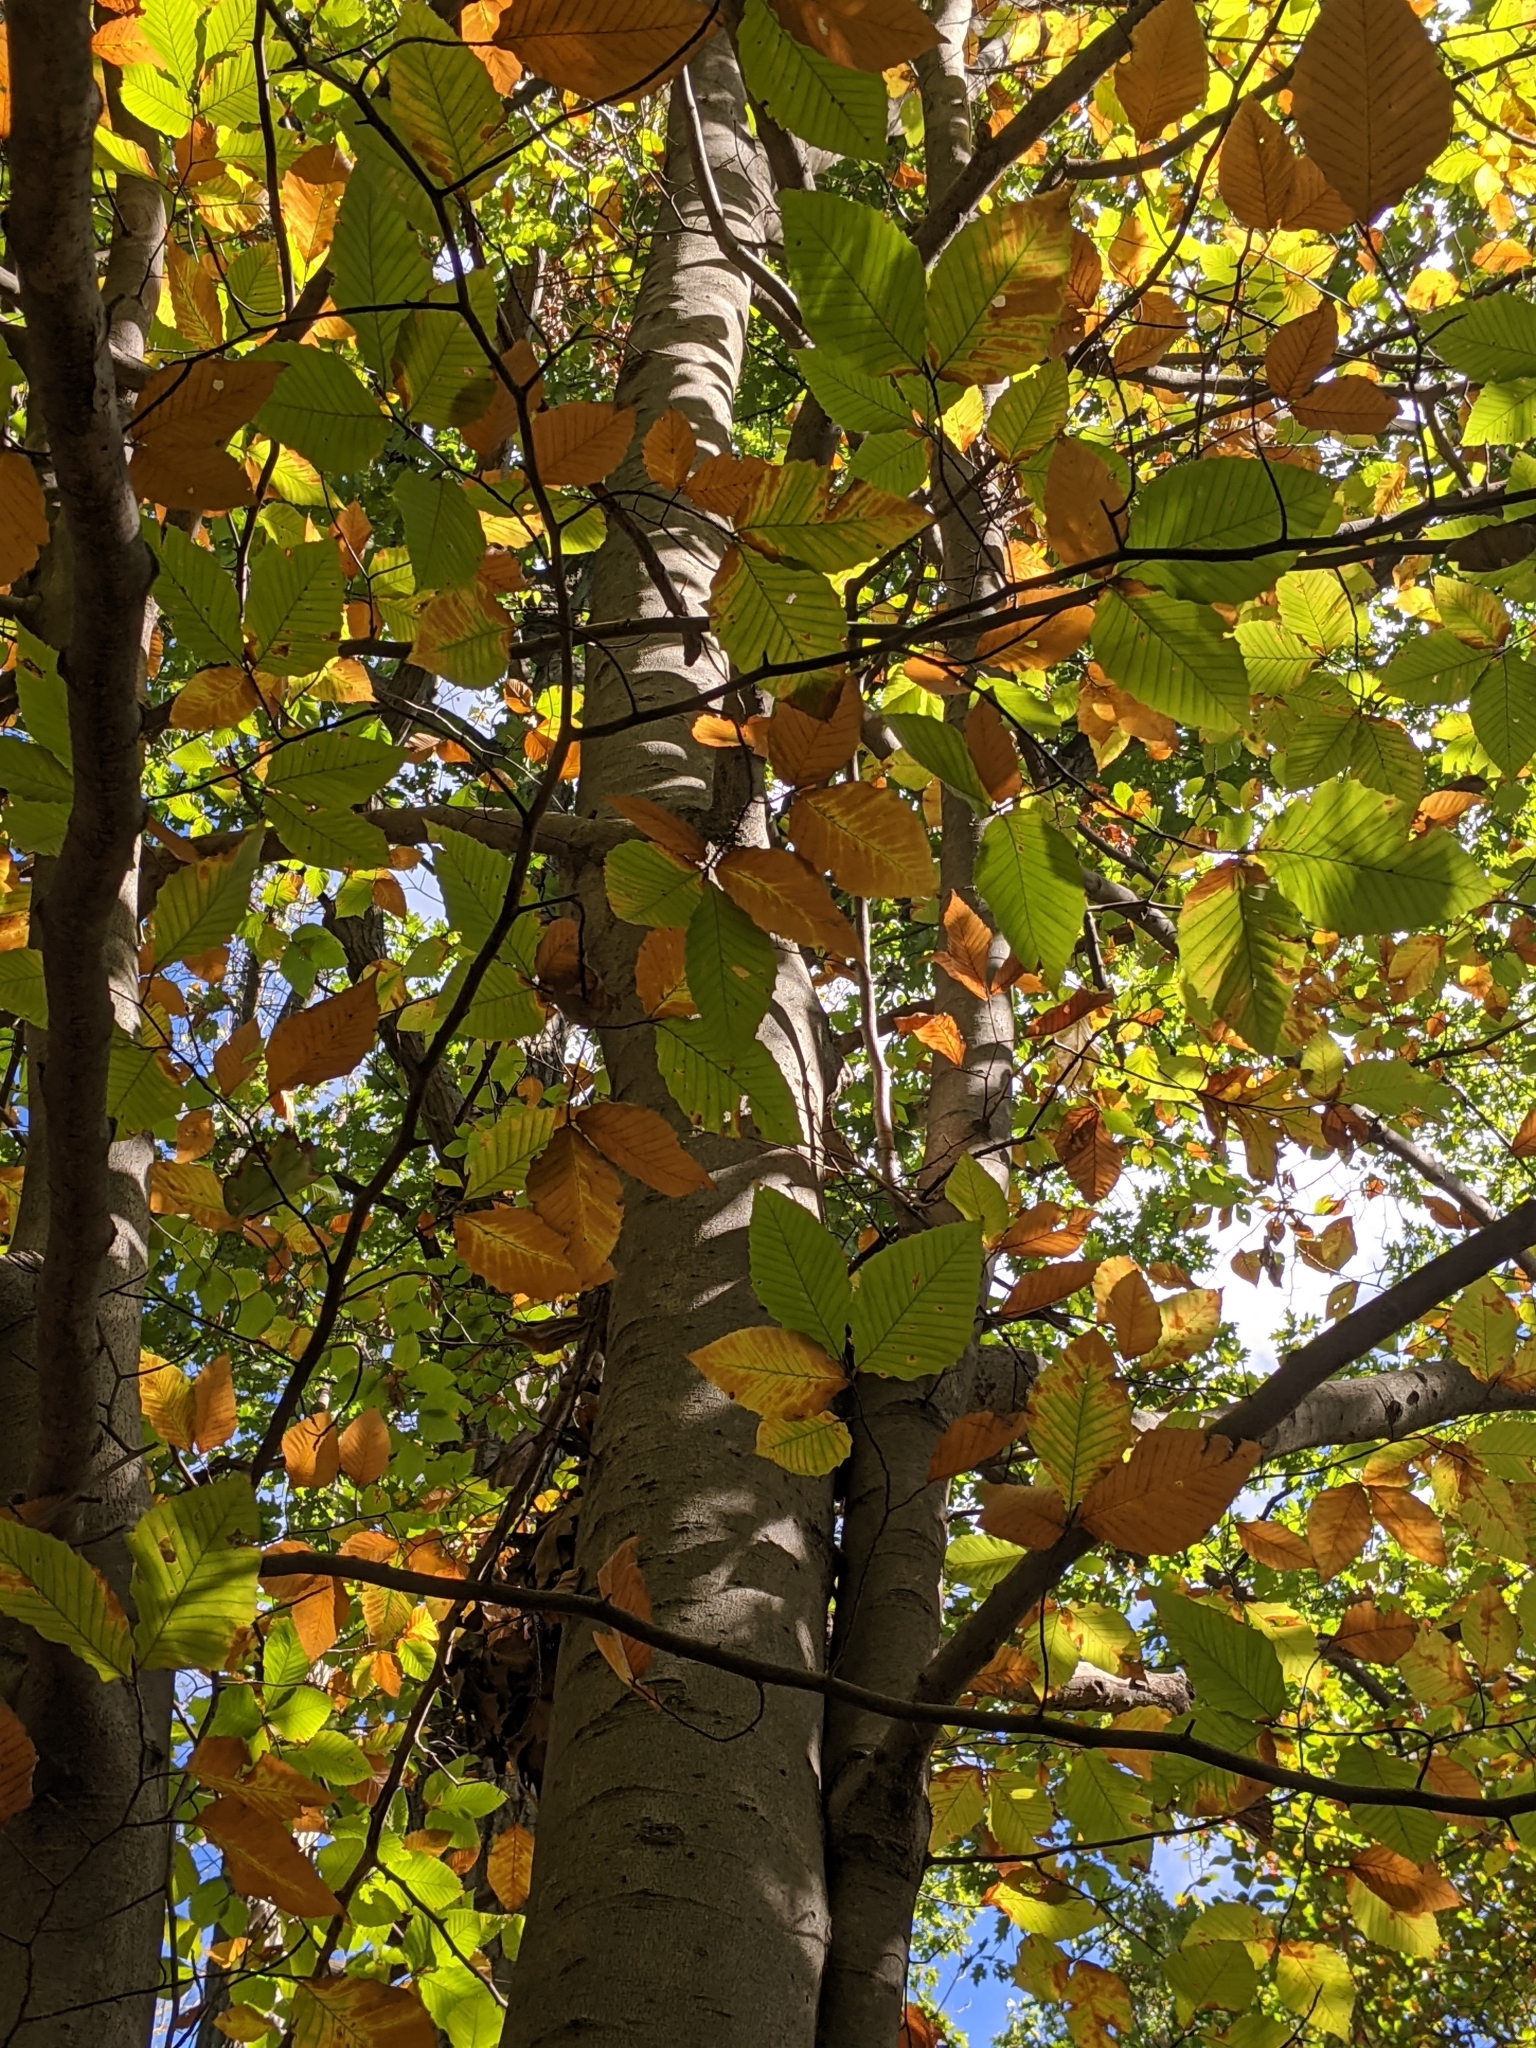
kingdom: Plantae
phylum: Tracheophyta
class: Magnoliopsida
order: Fagales
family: Fagaceae
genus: Fagus
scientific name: Fagus grandifolia
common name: American beech
